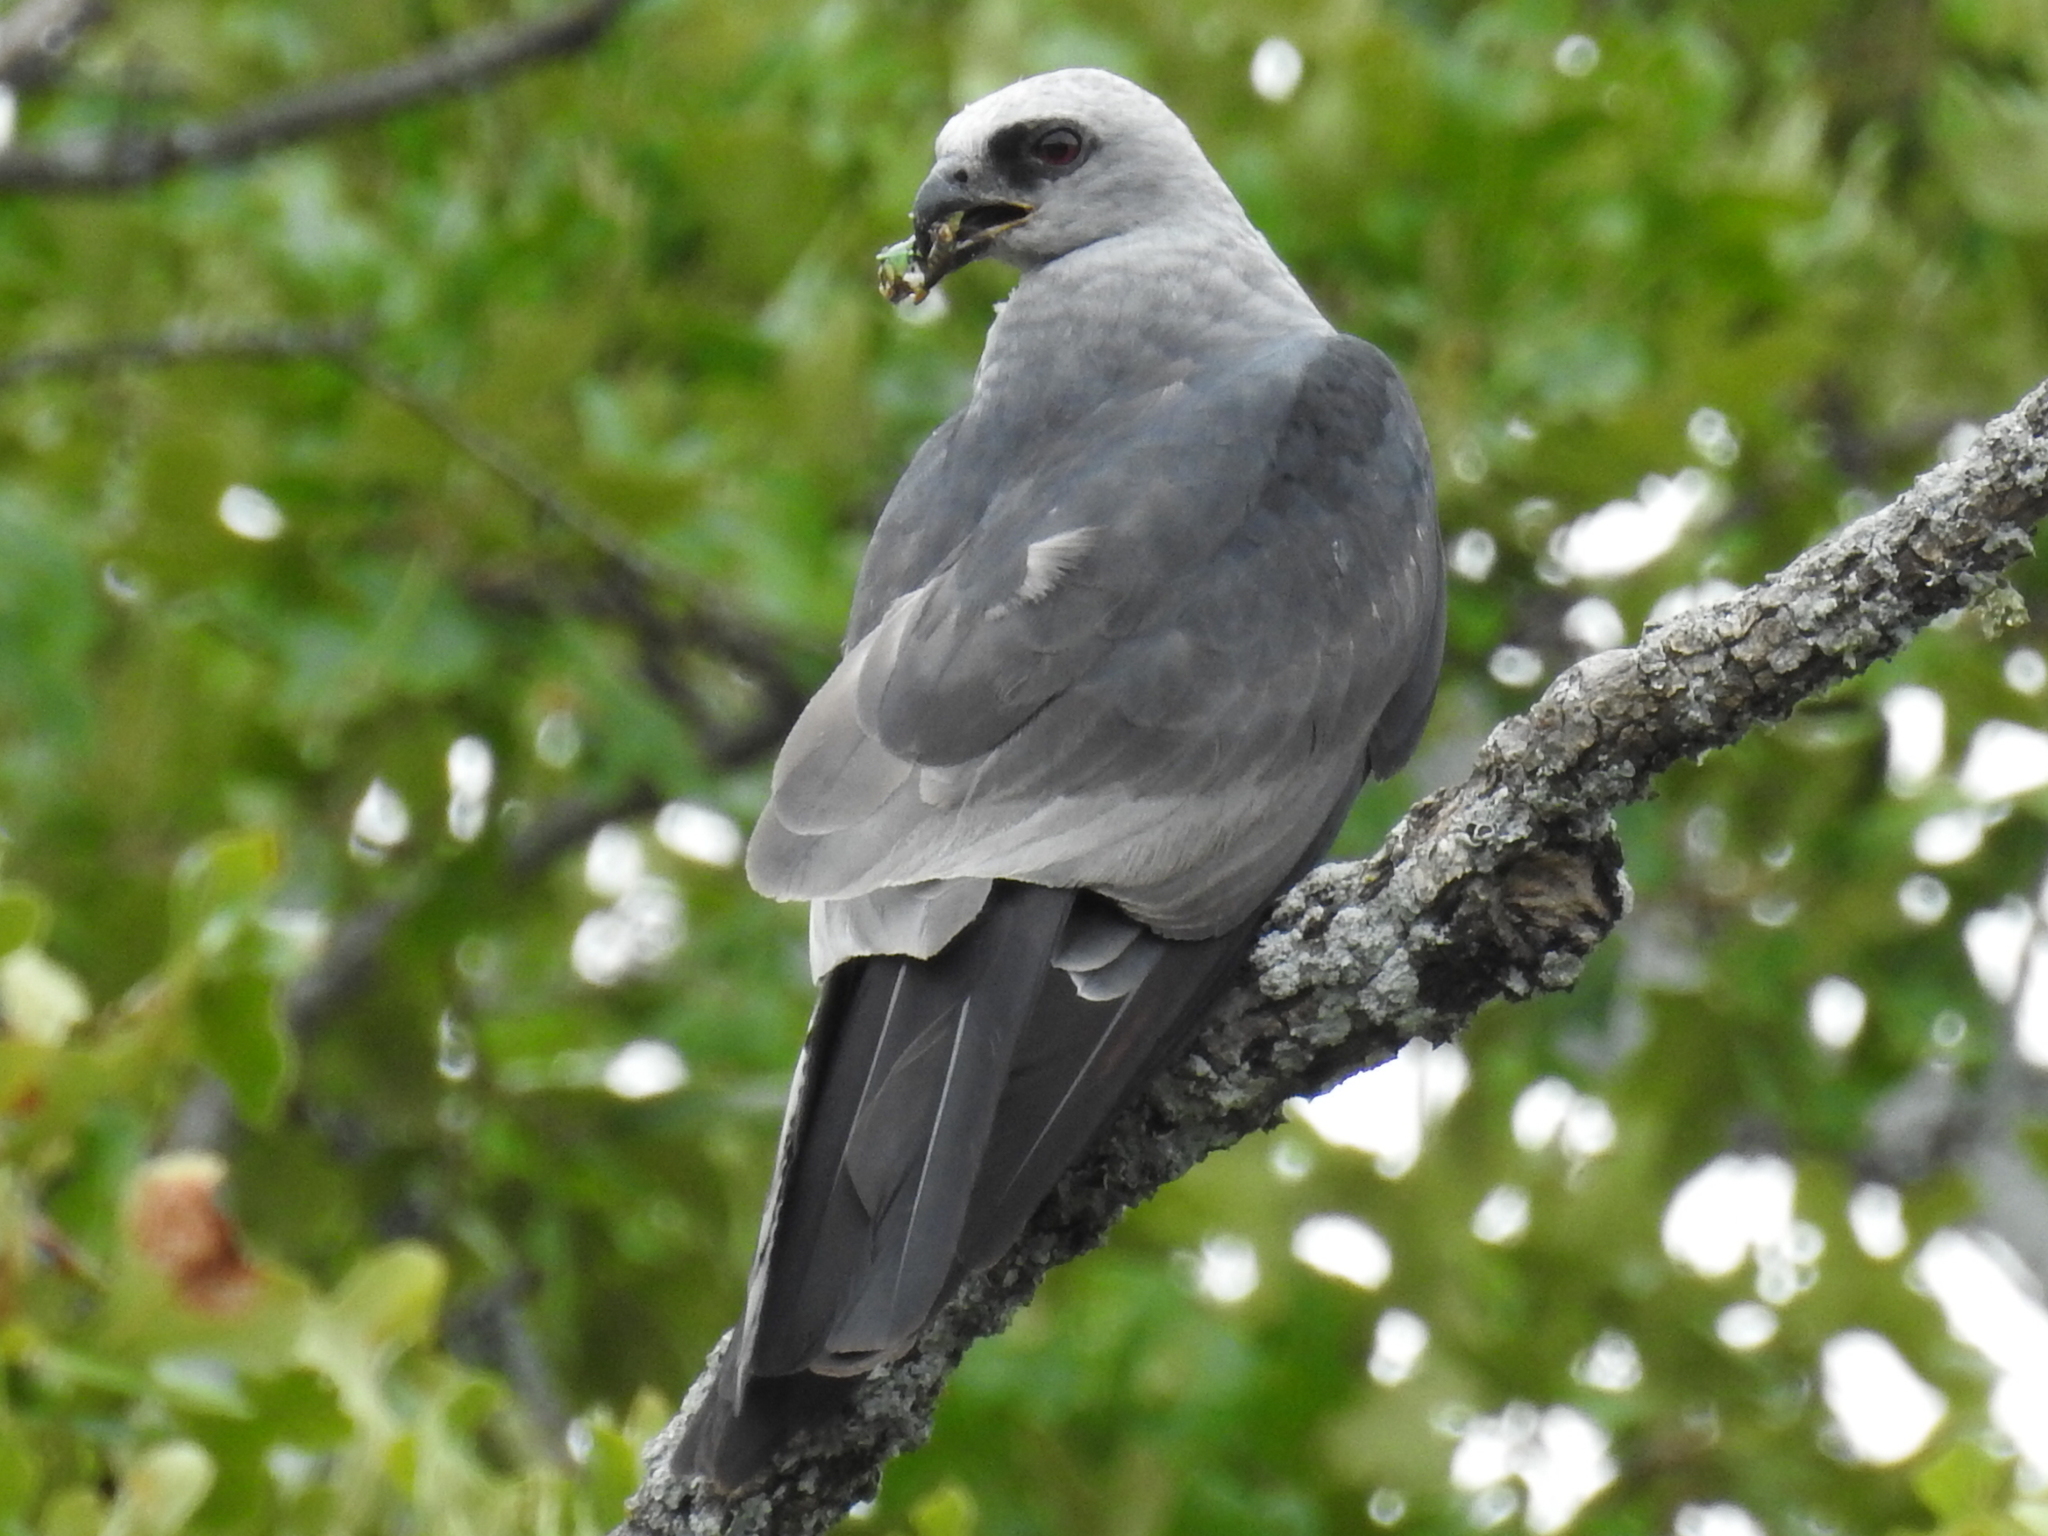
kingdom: Animalia
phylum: Chordata
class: Aves
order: Accipitriformes
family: Accipitridae
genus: Ictinia
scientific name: Ictinia mississippiensis
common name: Mississippi kite
